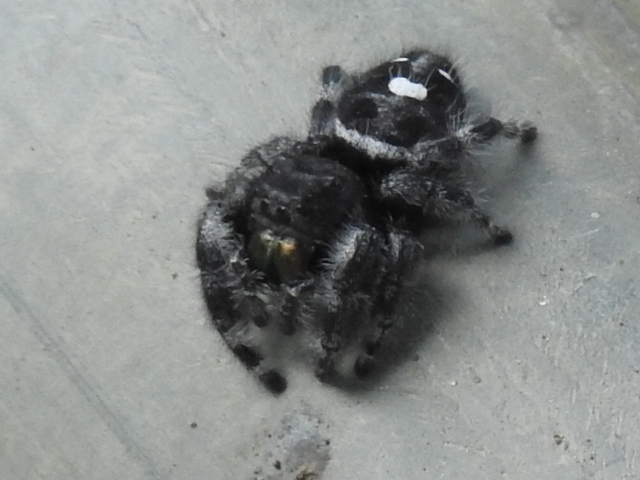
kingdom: Animalia
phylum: Arthropoda
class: Arachnida
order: Araneae
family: Salticidae
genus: Phidippus
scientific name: Phidippus audax
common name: Bold jumper
